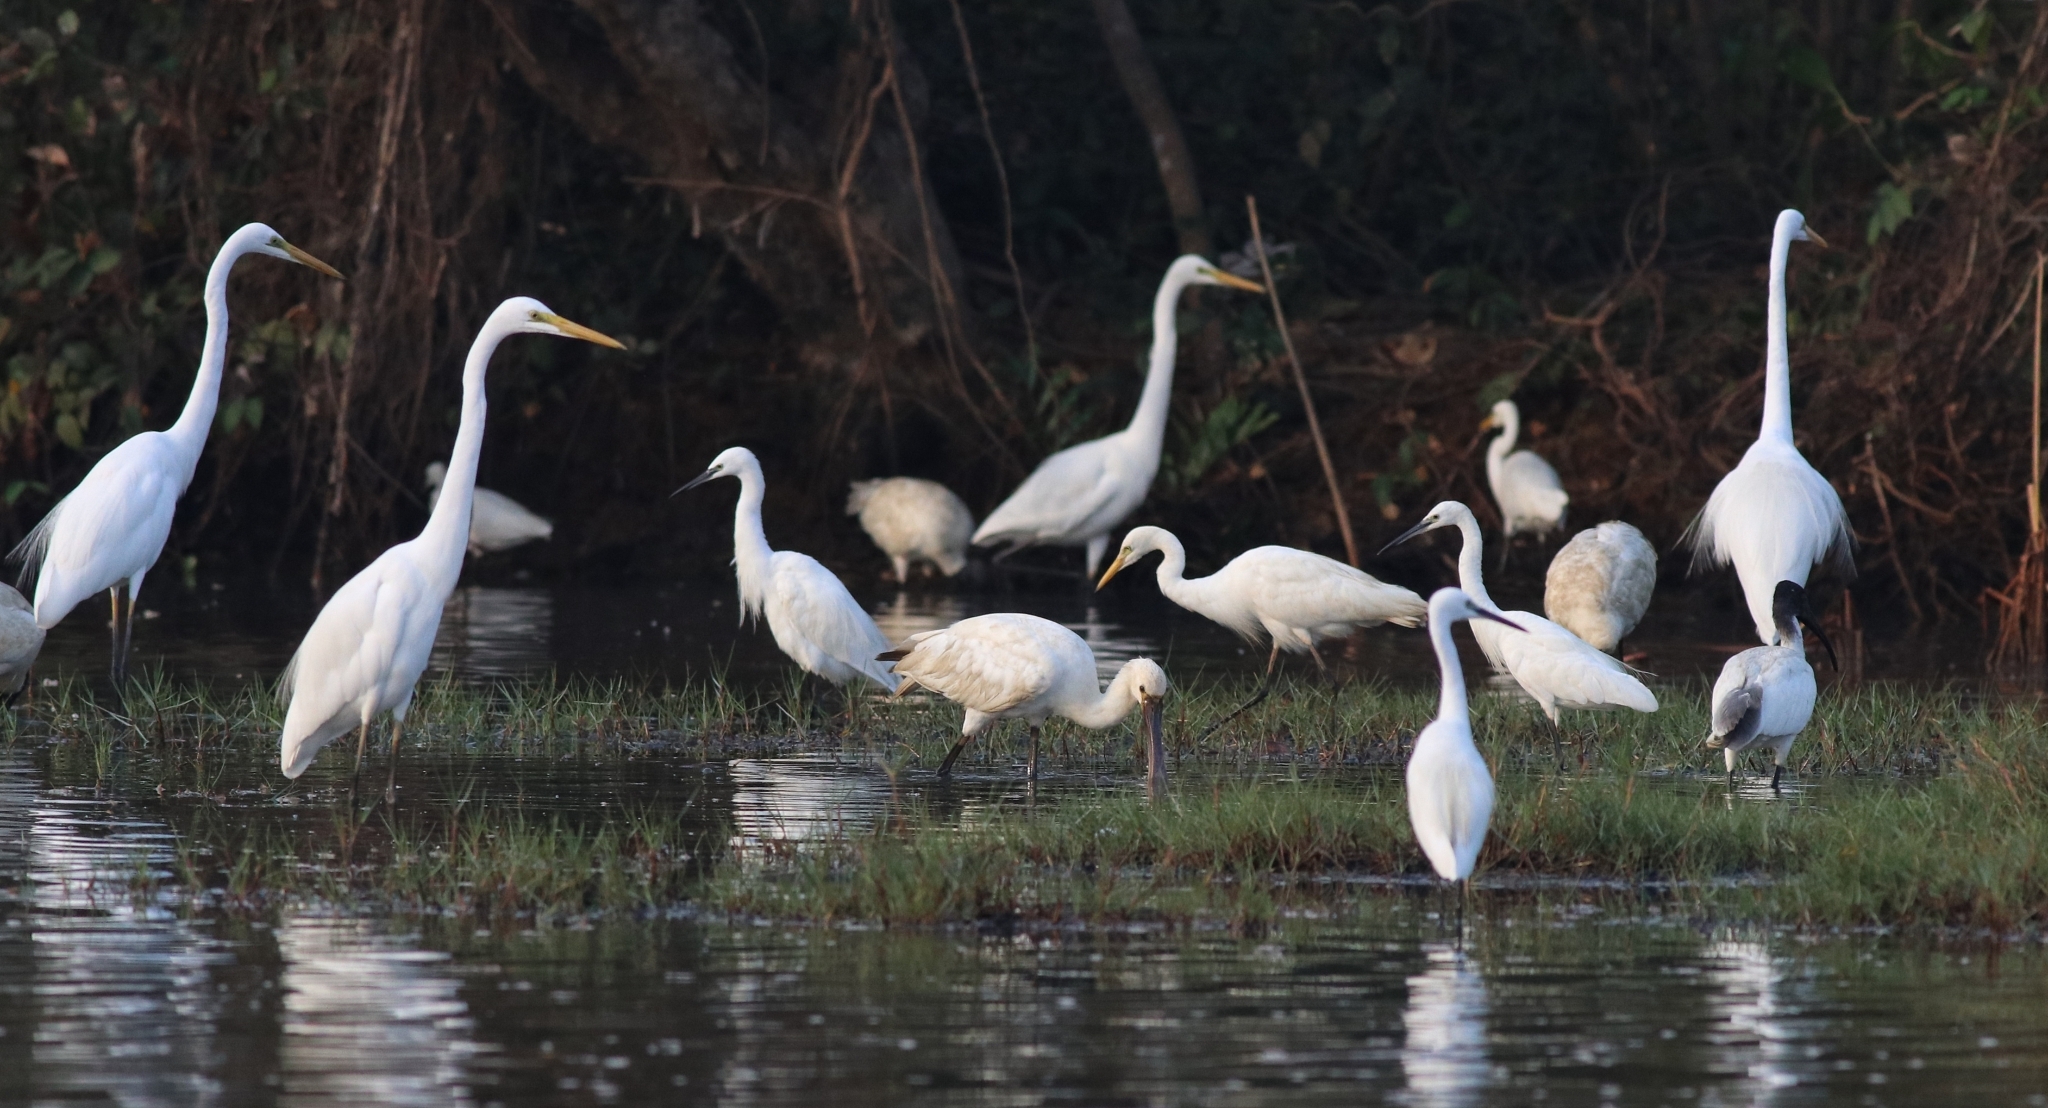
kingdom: Animalia
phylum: Chordata
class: Aves
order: Pelecaniformes
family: Ardeidae
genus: Egretta
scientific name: Egretta garzetta
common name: Little egret
